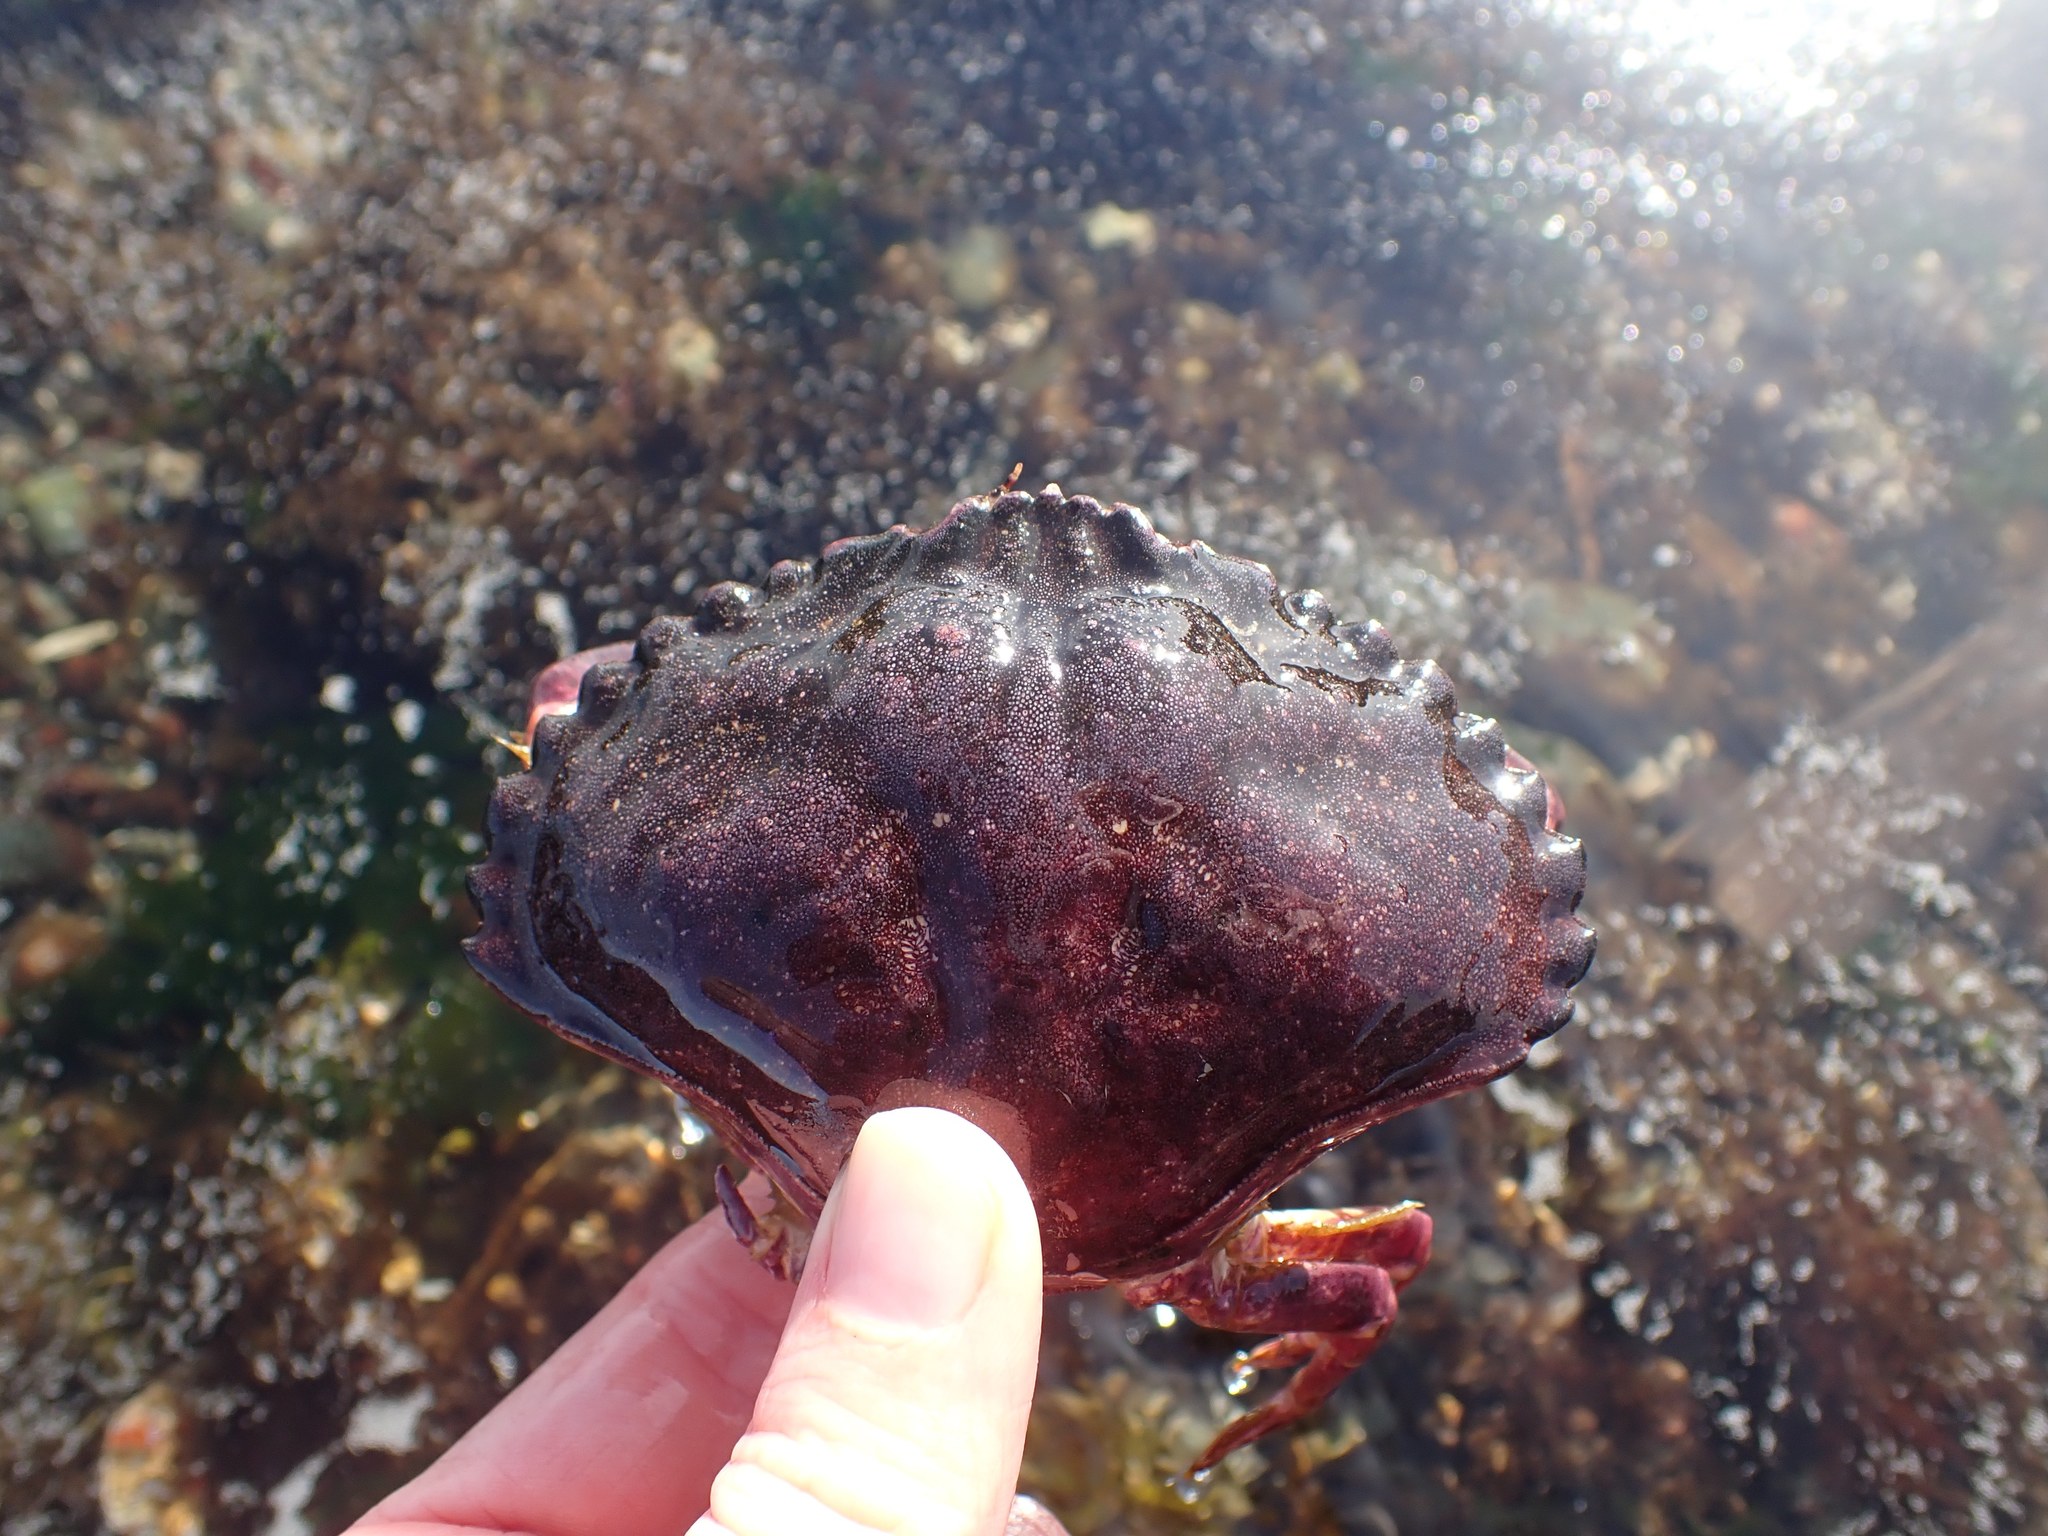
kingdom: Animalia
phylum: Arthropoda
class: Malacostraca
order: Decapoda
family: Cancridae
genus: Cancer
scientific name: Cancer productus
